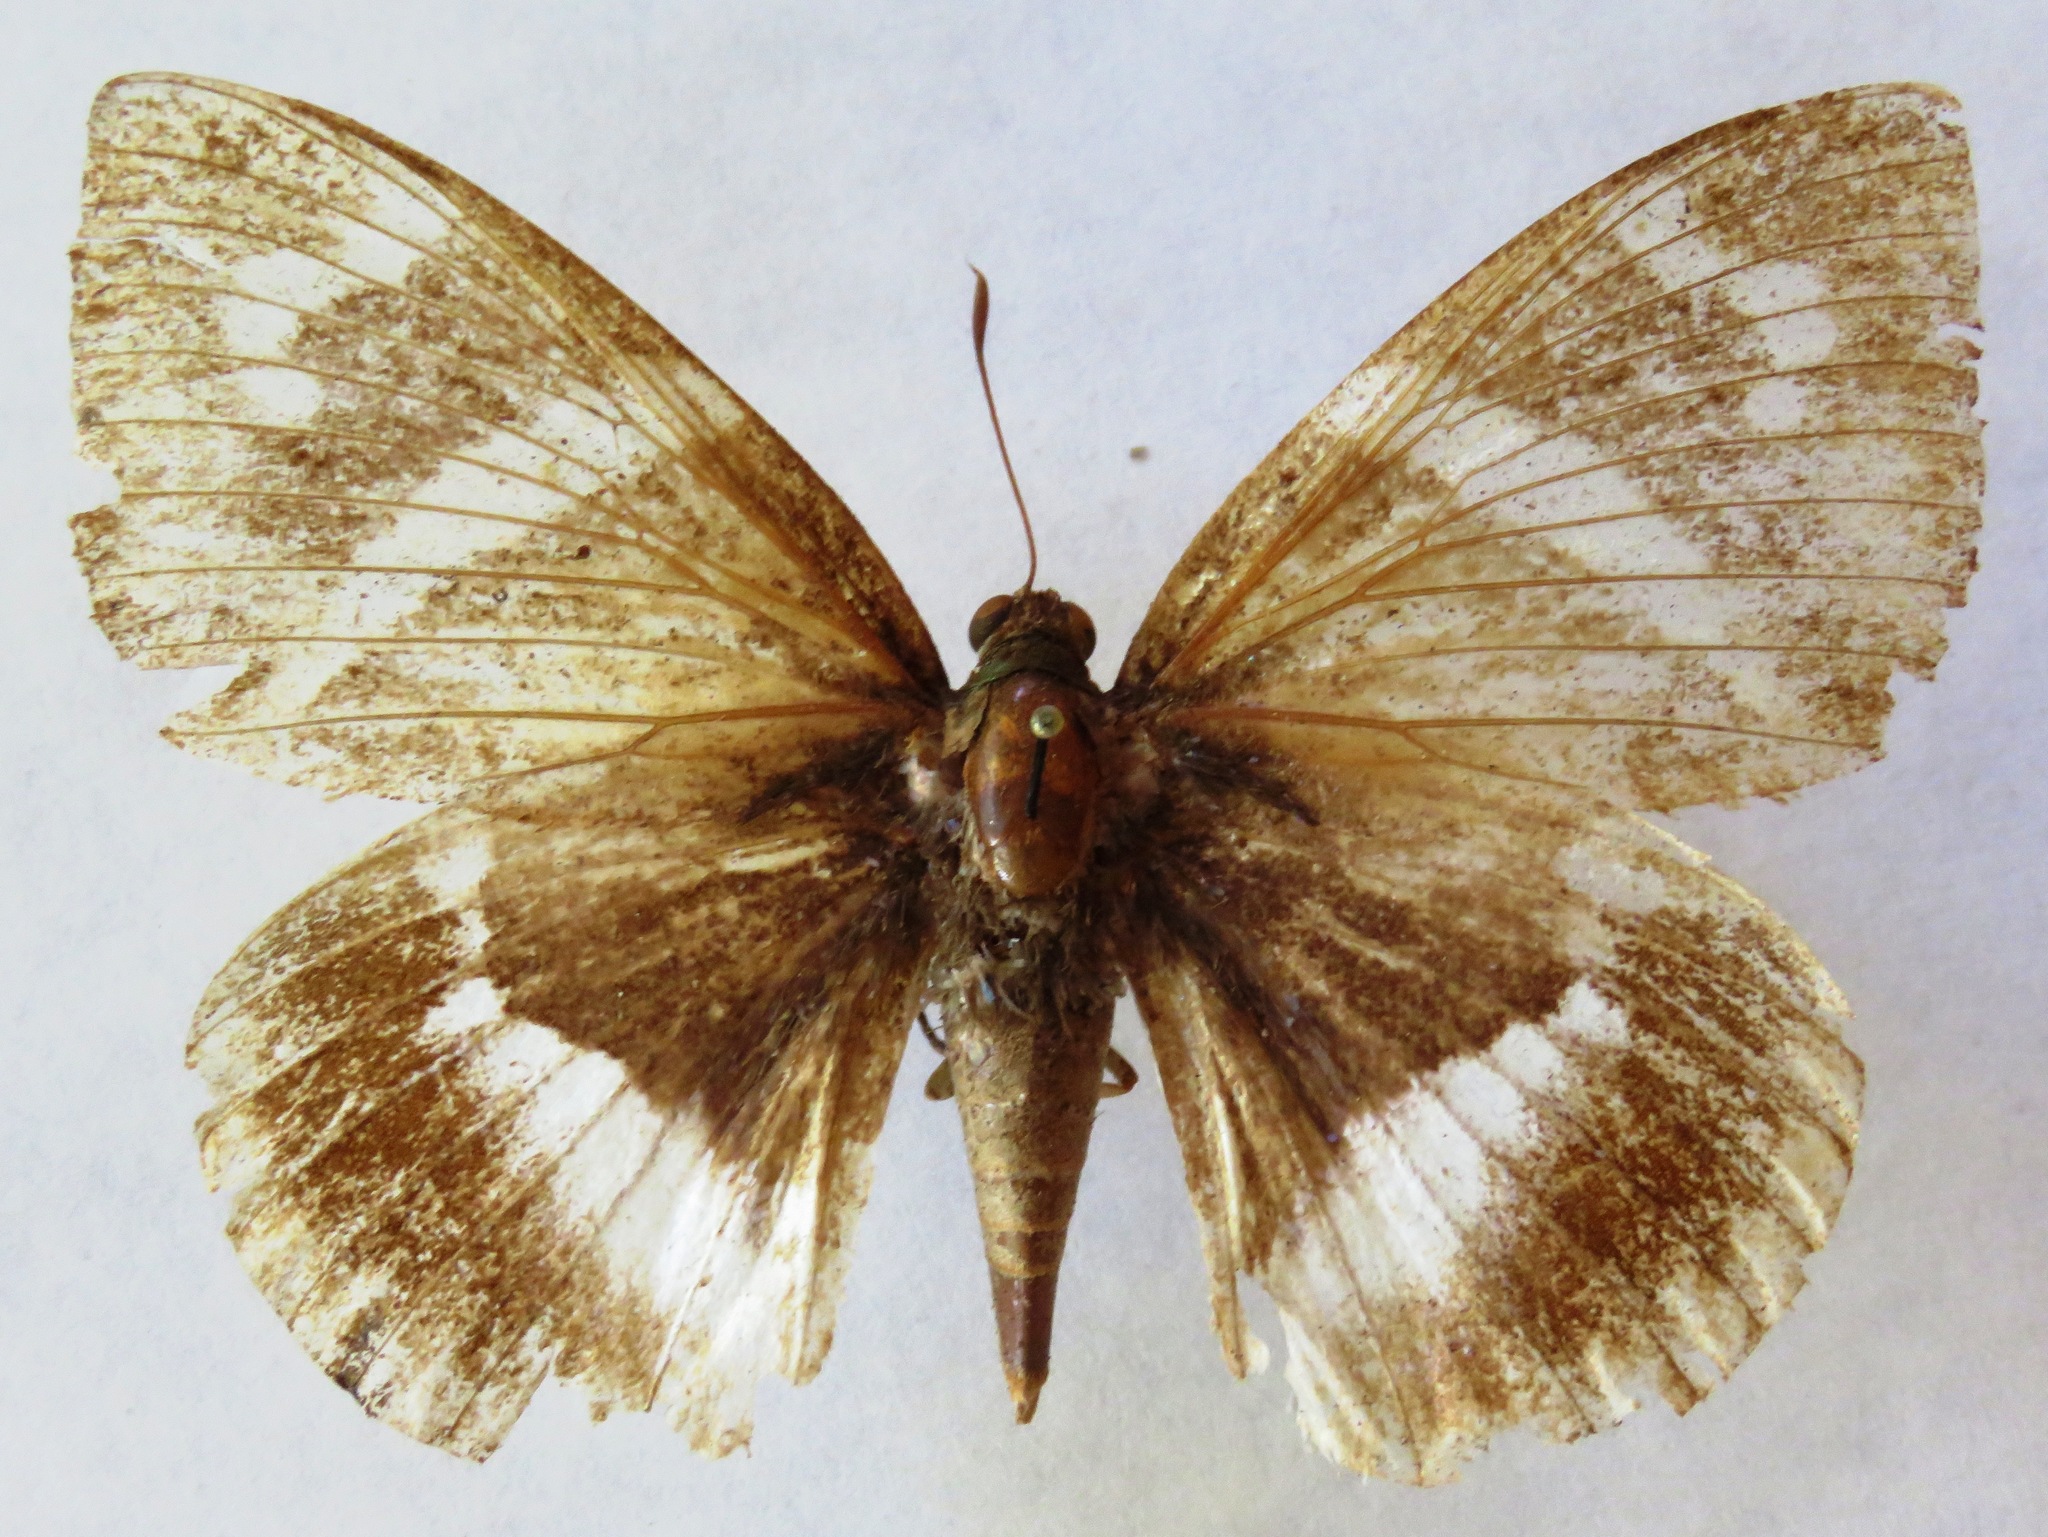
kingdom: Animalia
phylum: Arthropoda
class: Insecta
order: Lepidoptera
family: Castniidae
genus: Castniomera
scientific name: Castniomera atymnius
